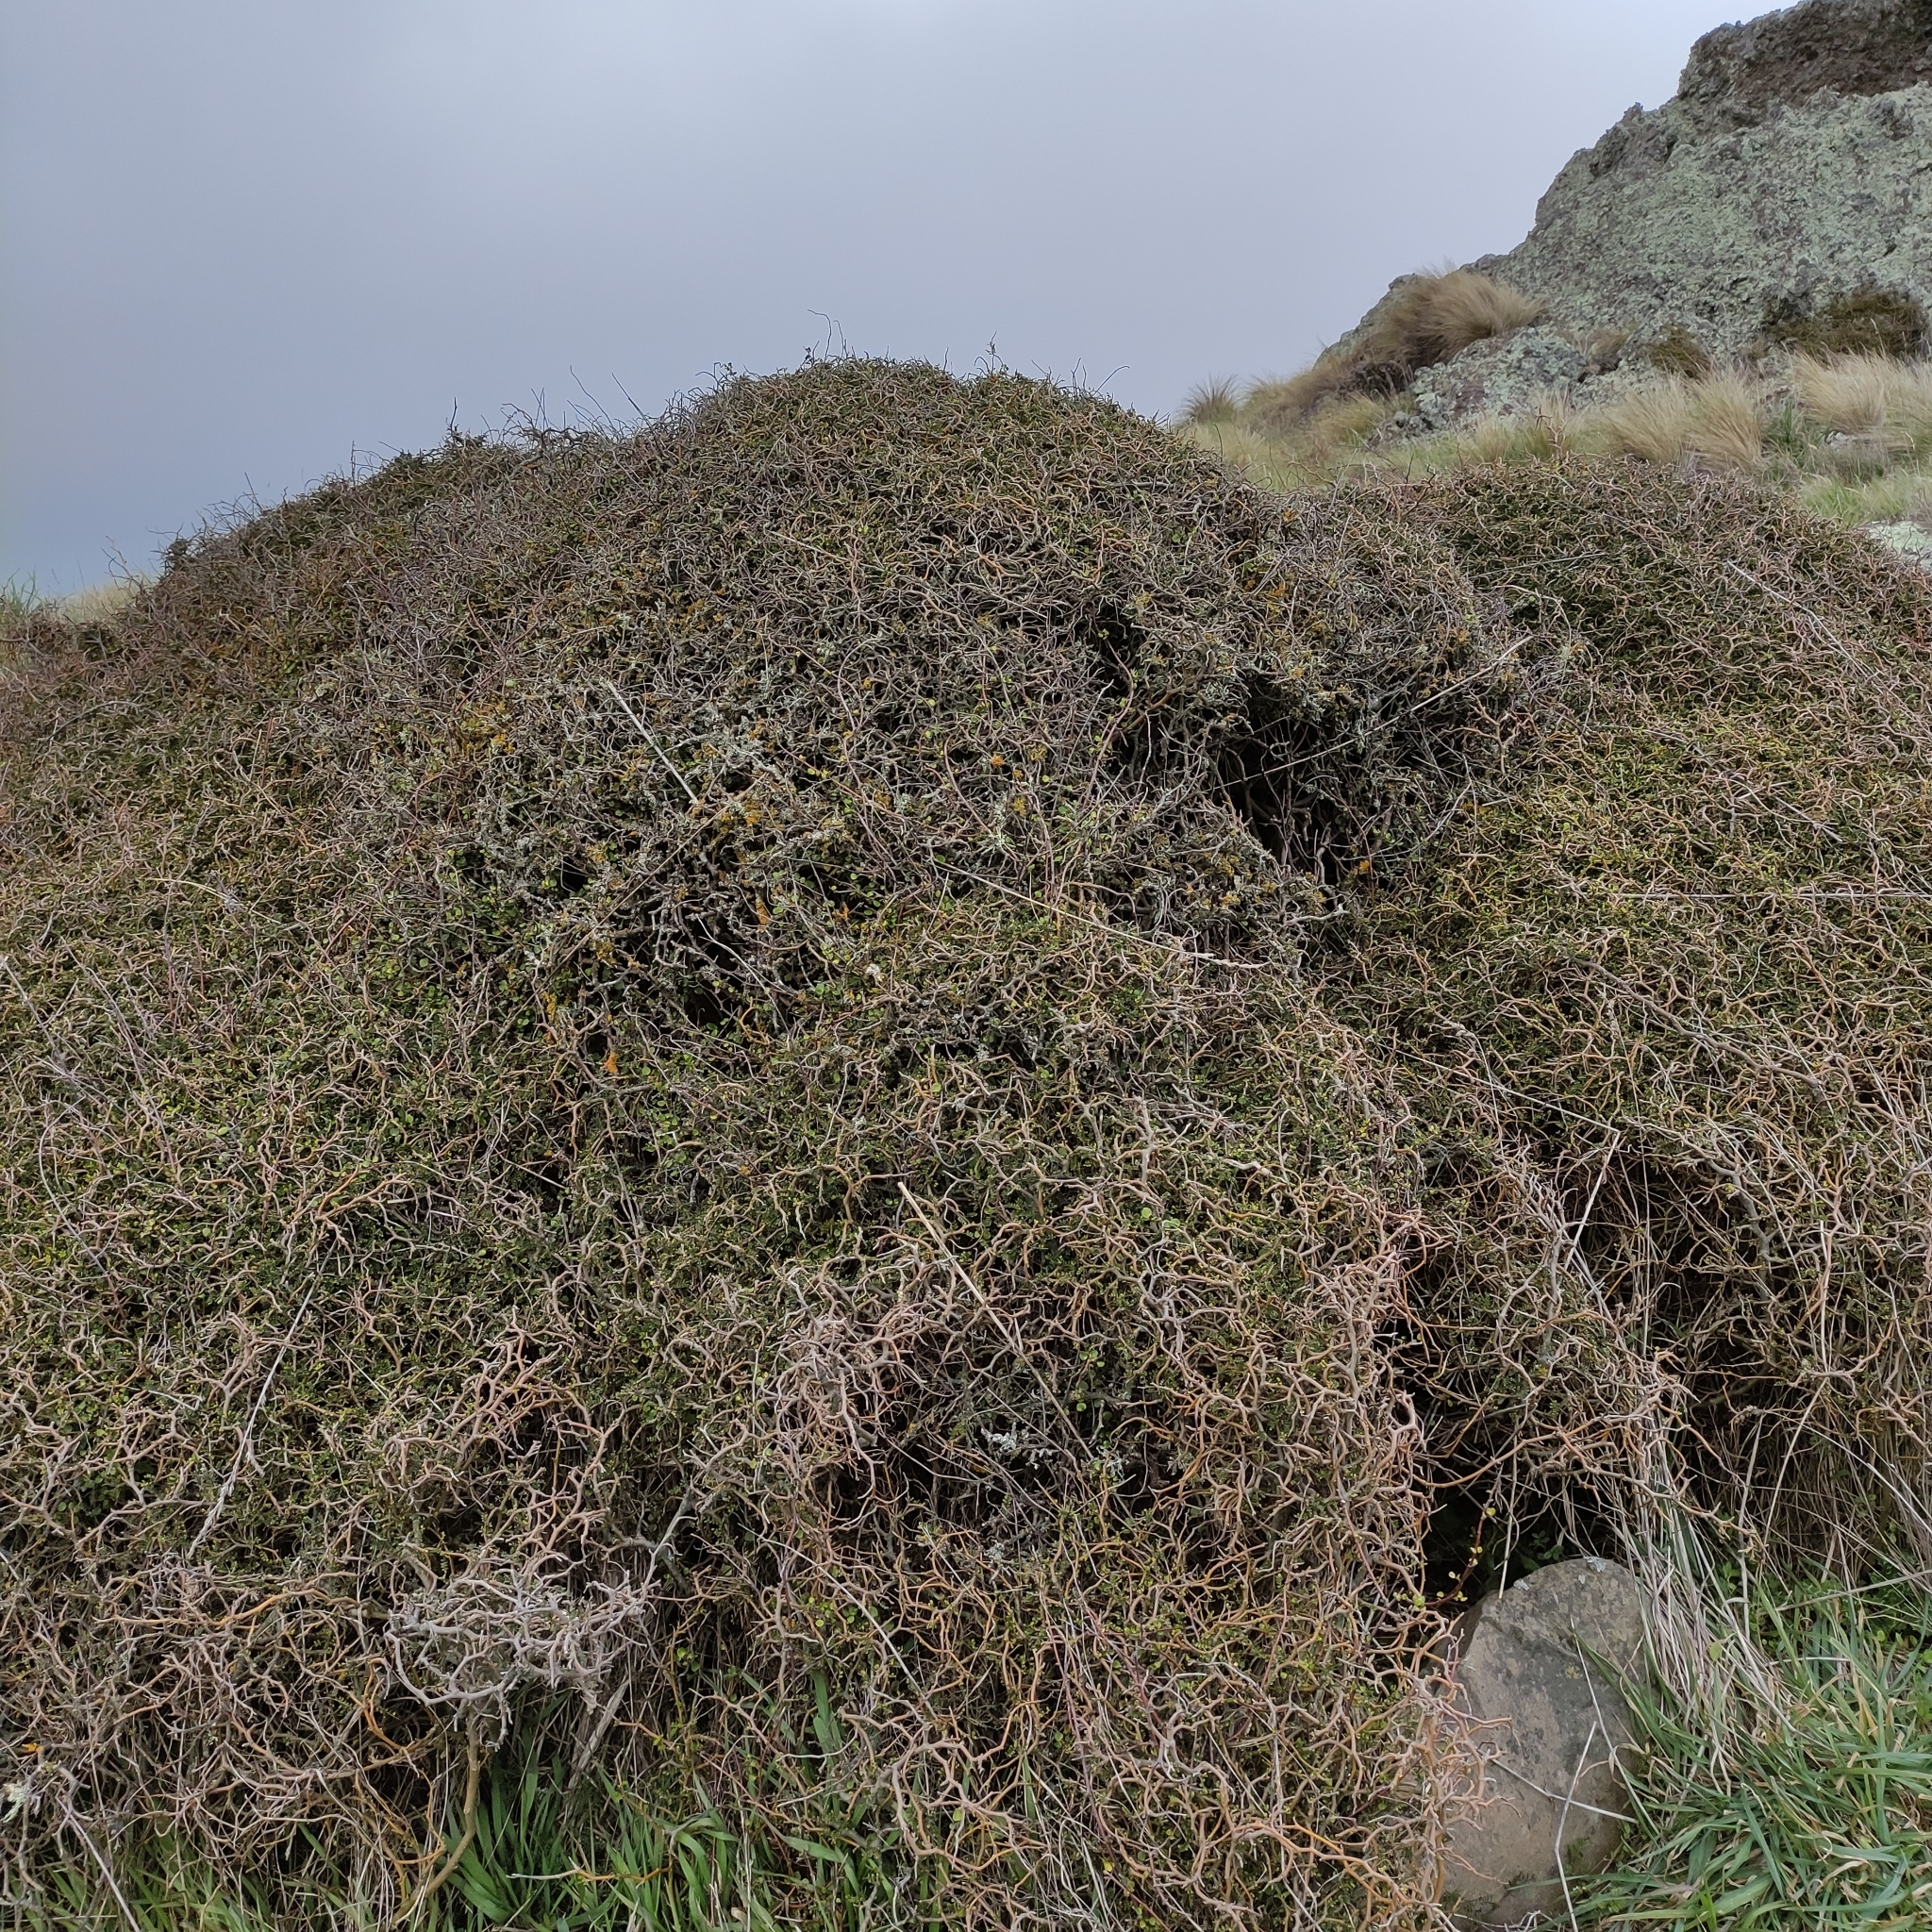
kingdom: Plantae
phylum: Tracheophyta
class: Magnoliopsida
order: Fabales
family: Fabaceae
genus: Sophora
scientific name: Sophora prostrata
